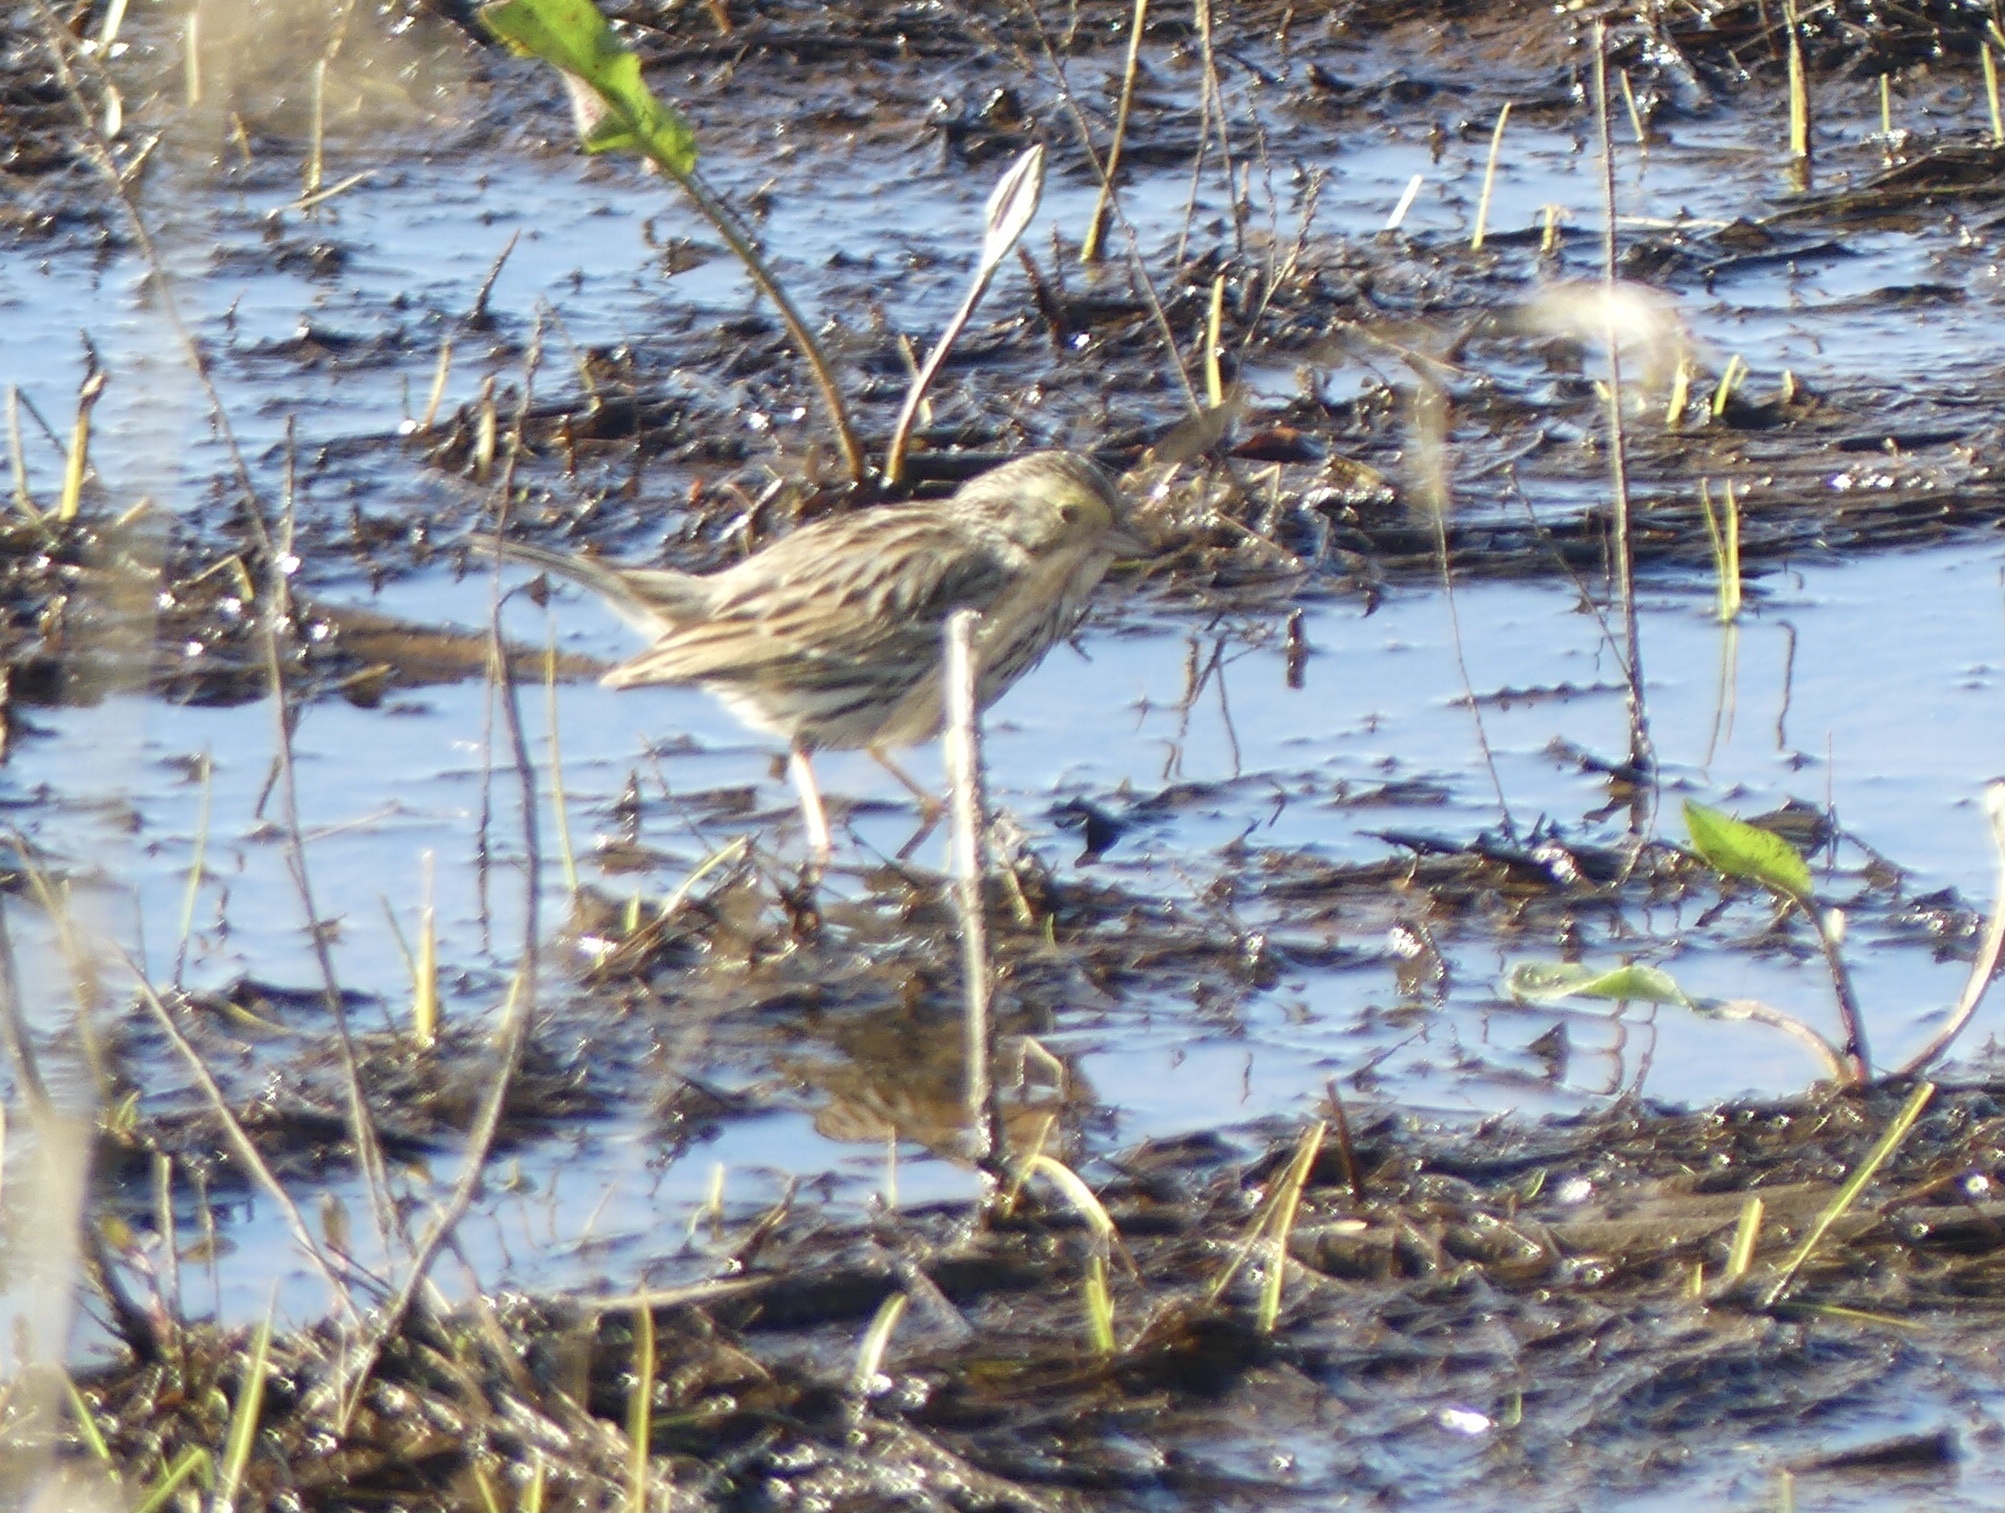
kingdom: Animalia
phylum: Chordata
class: Aves
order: Passeriformes
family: Passerellidae
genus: Passerculus
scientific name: Passerculus sandwichensis
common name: Savannah sparrow
